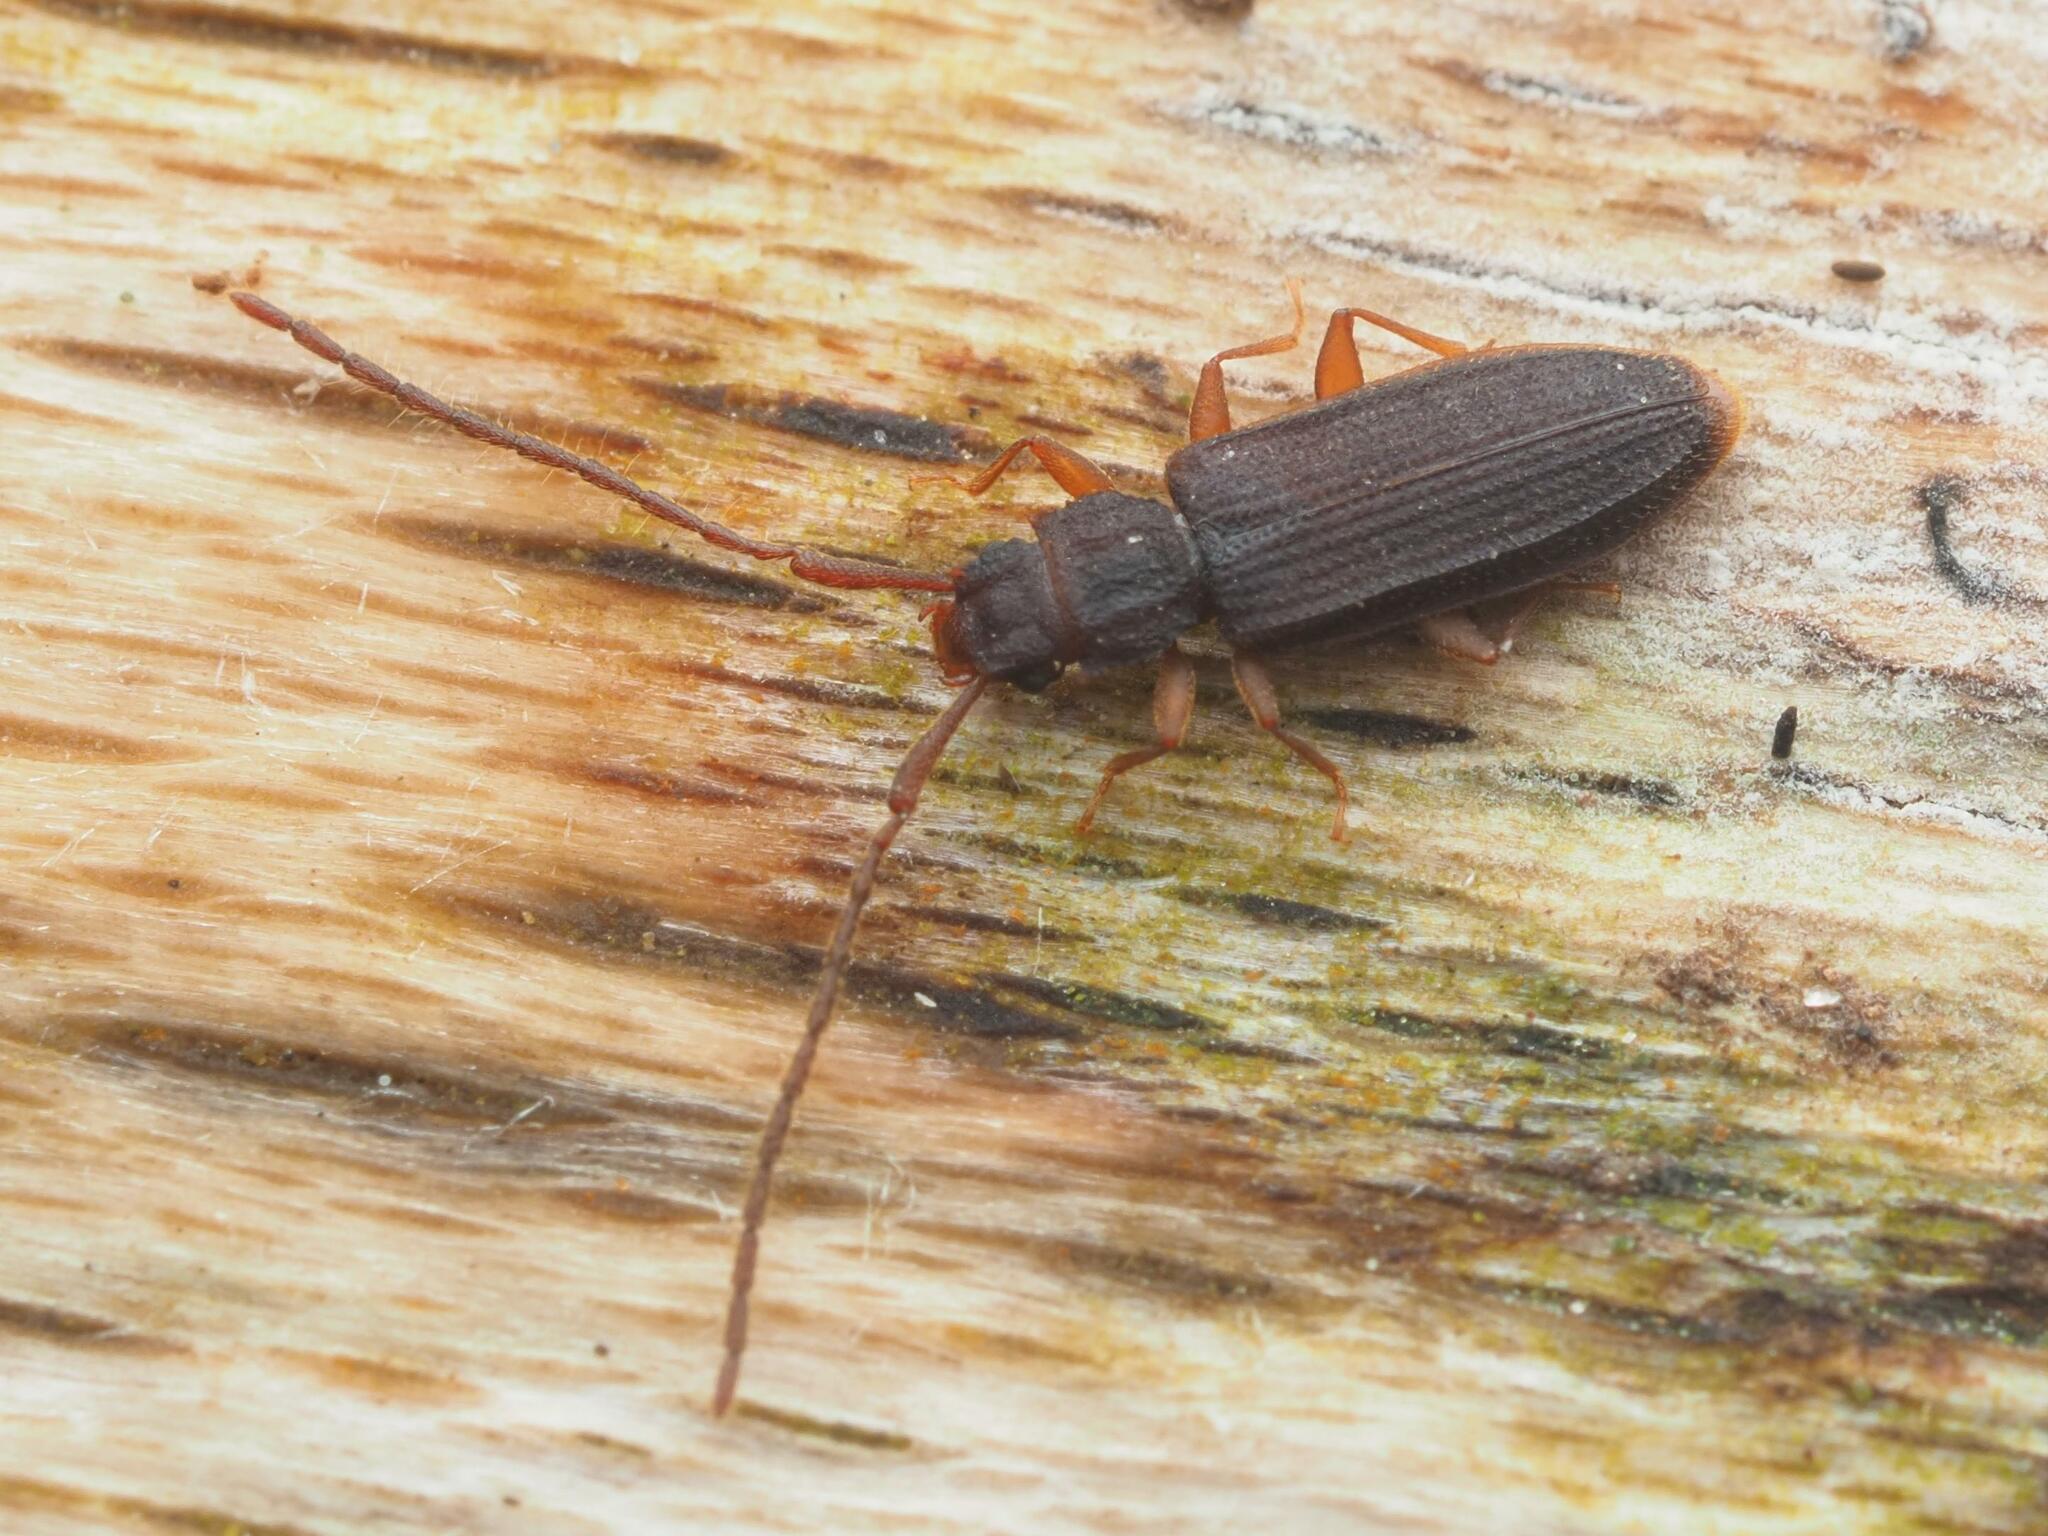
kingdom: Animalia
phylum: Arthropoda
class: Insecta
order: Coleoptera
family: Silvanidae
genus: Uleiota
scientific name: Uleiota planatus
